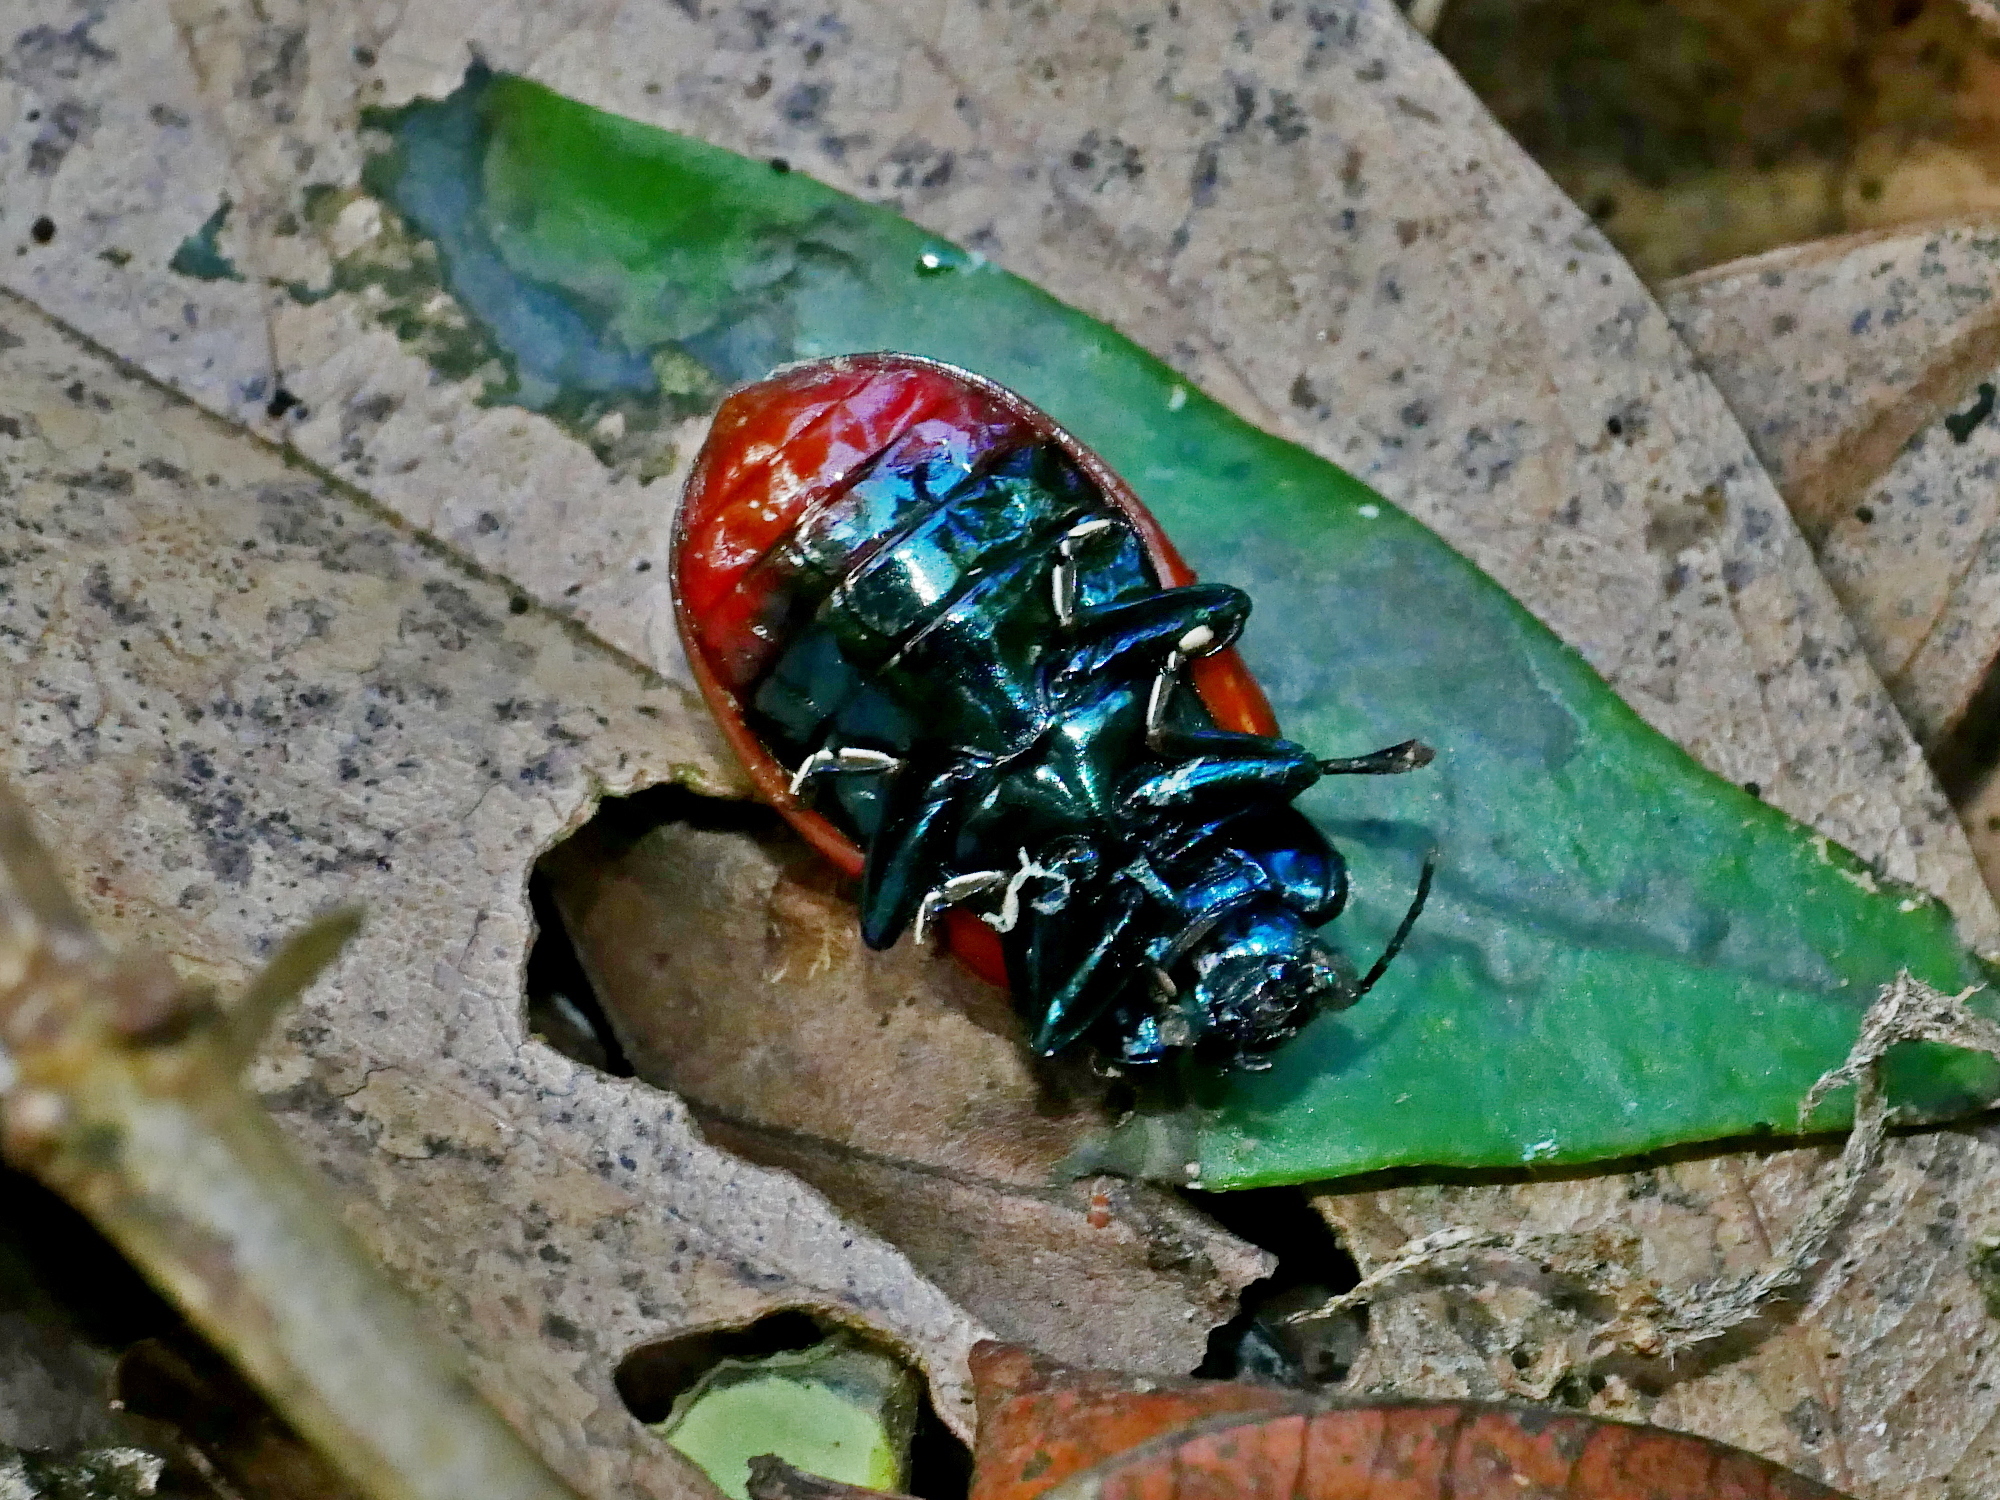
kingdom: Animalia
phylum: Arthropoda
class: Insecta
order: Coleoptera
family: Chrysomelidae
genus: Agrosteomela
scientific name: Agrosteomela chinensis
